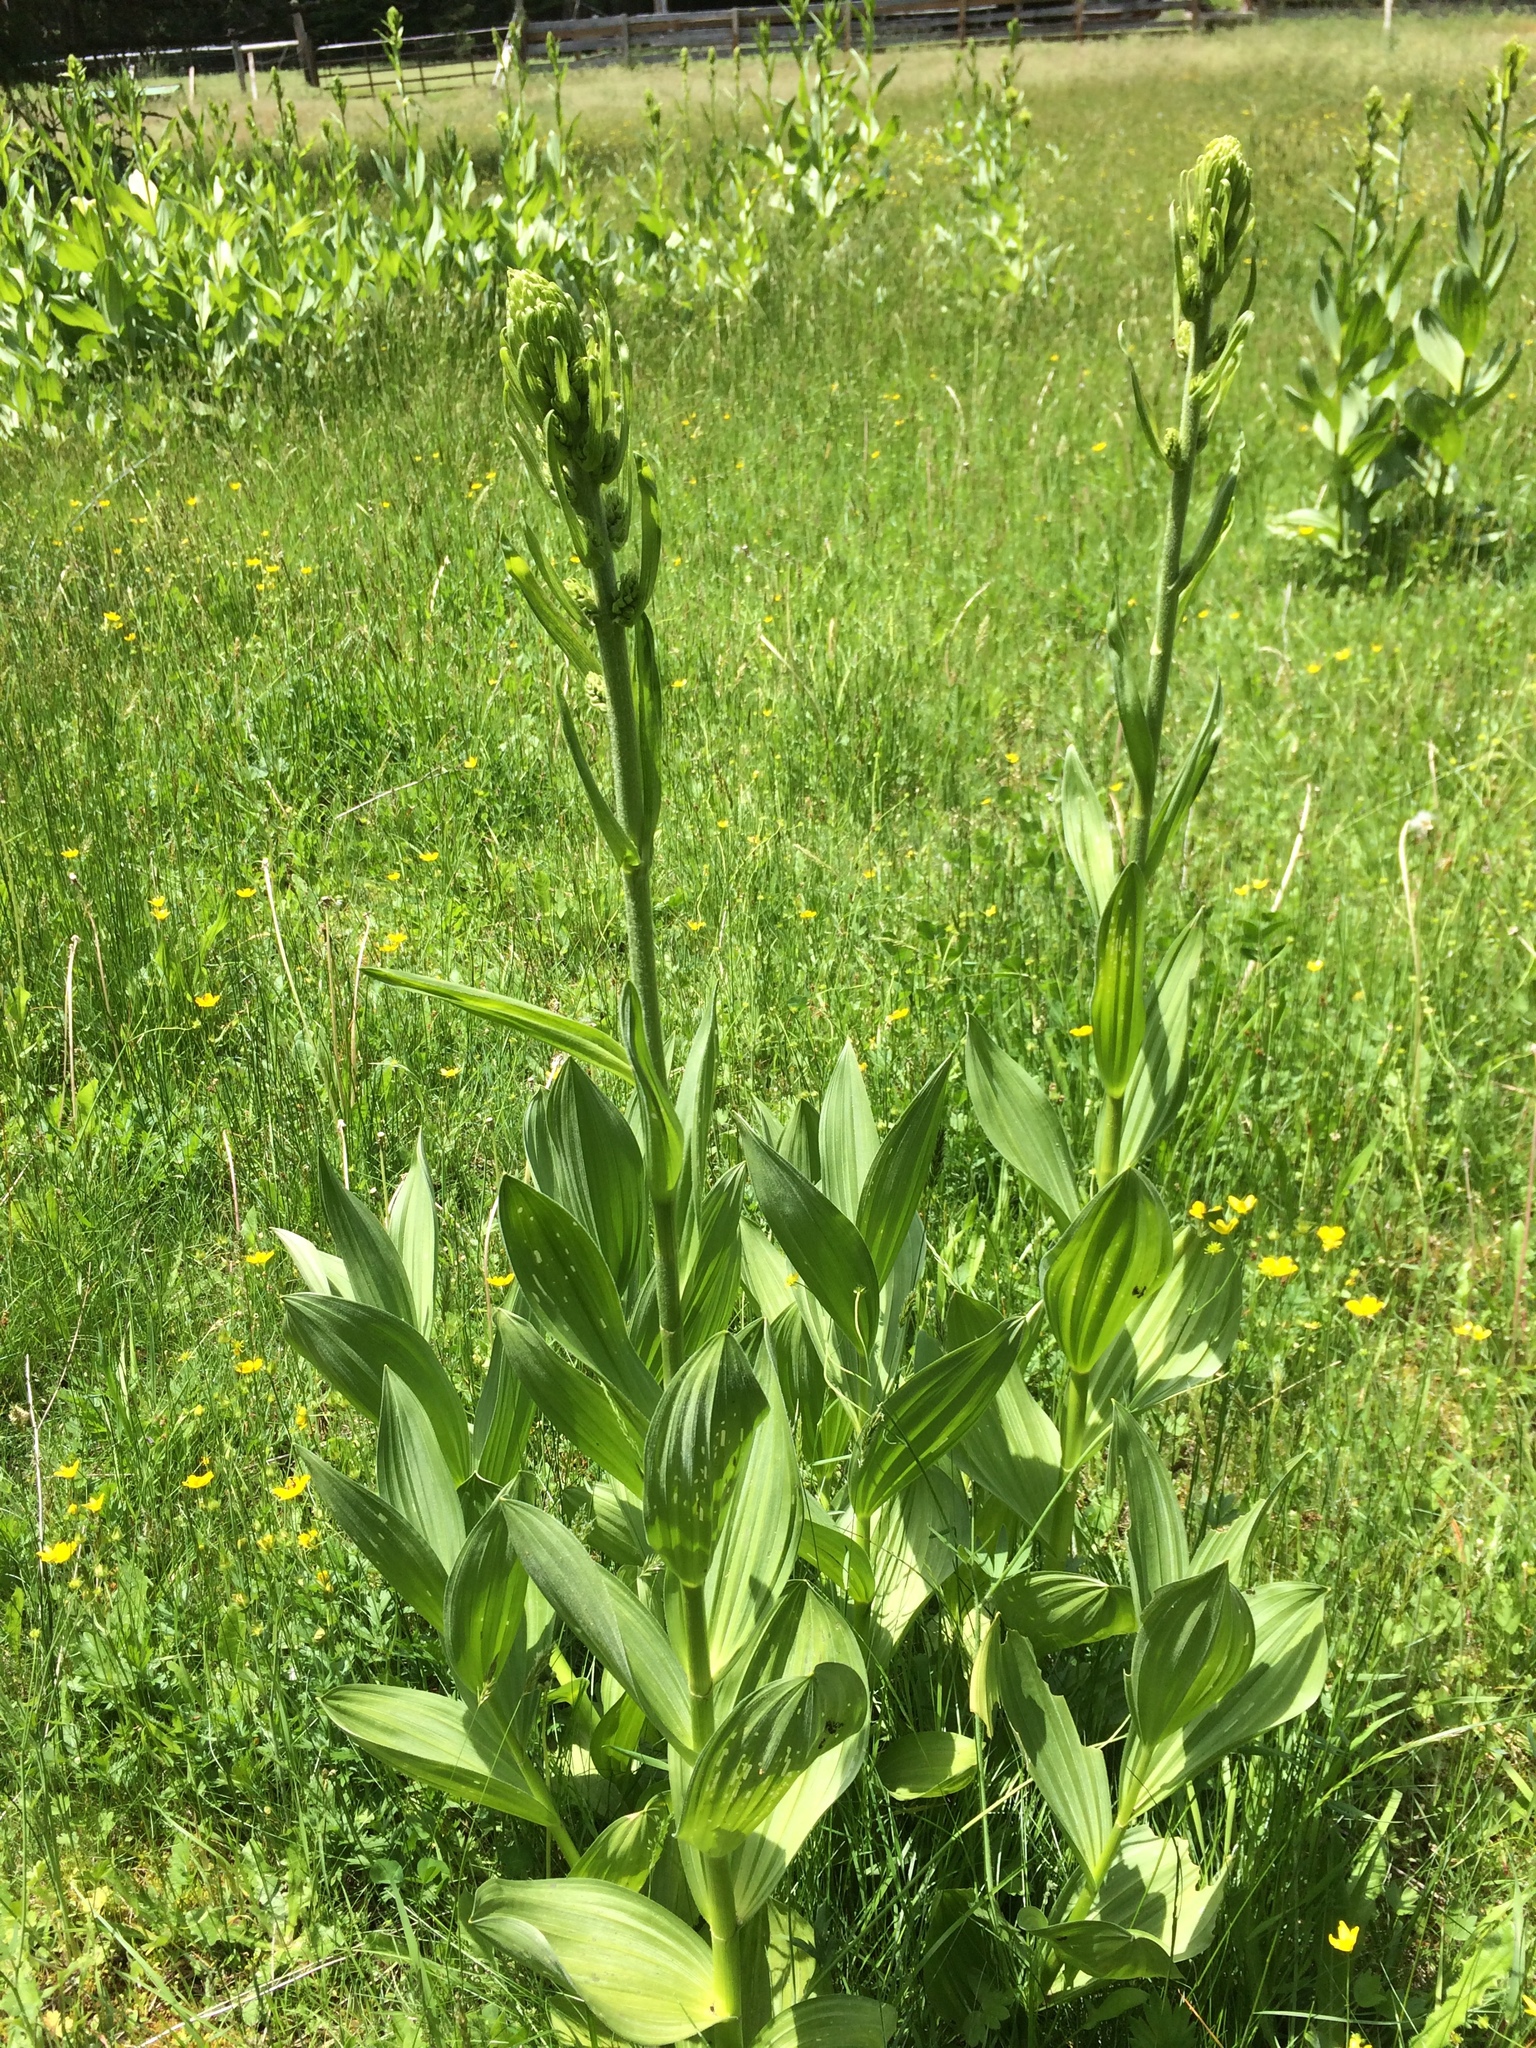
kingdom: Plantae
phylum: Tracheophyta
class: Liliopsida
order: Liliales
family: Melanthiaceae
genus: Veratrum
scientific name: Veratrum californicum
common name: California veratrum
